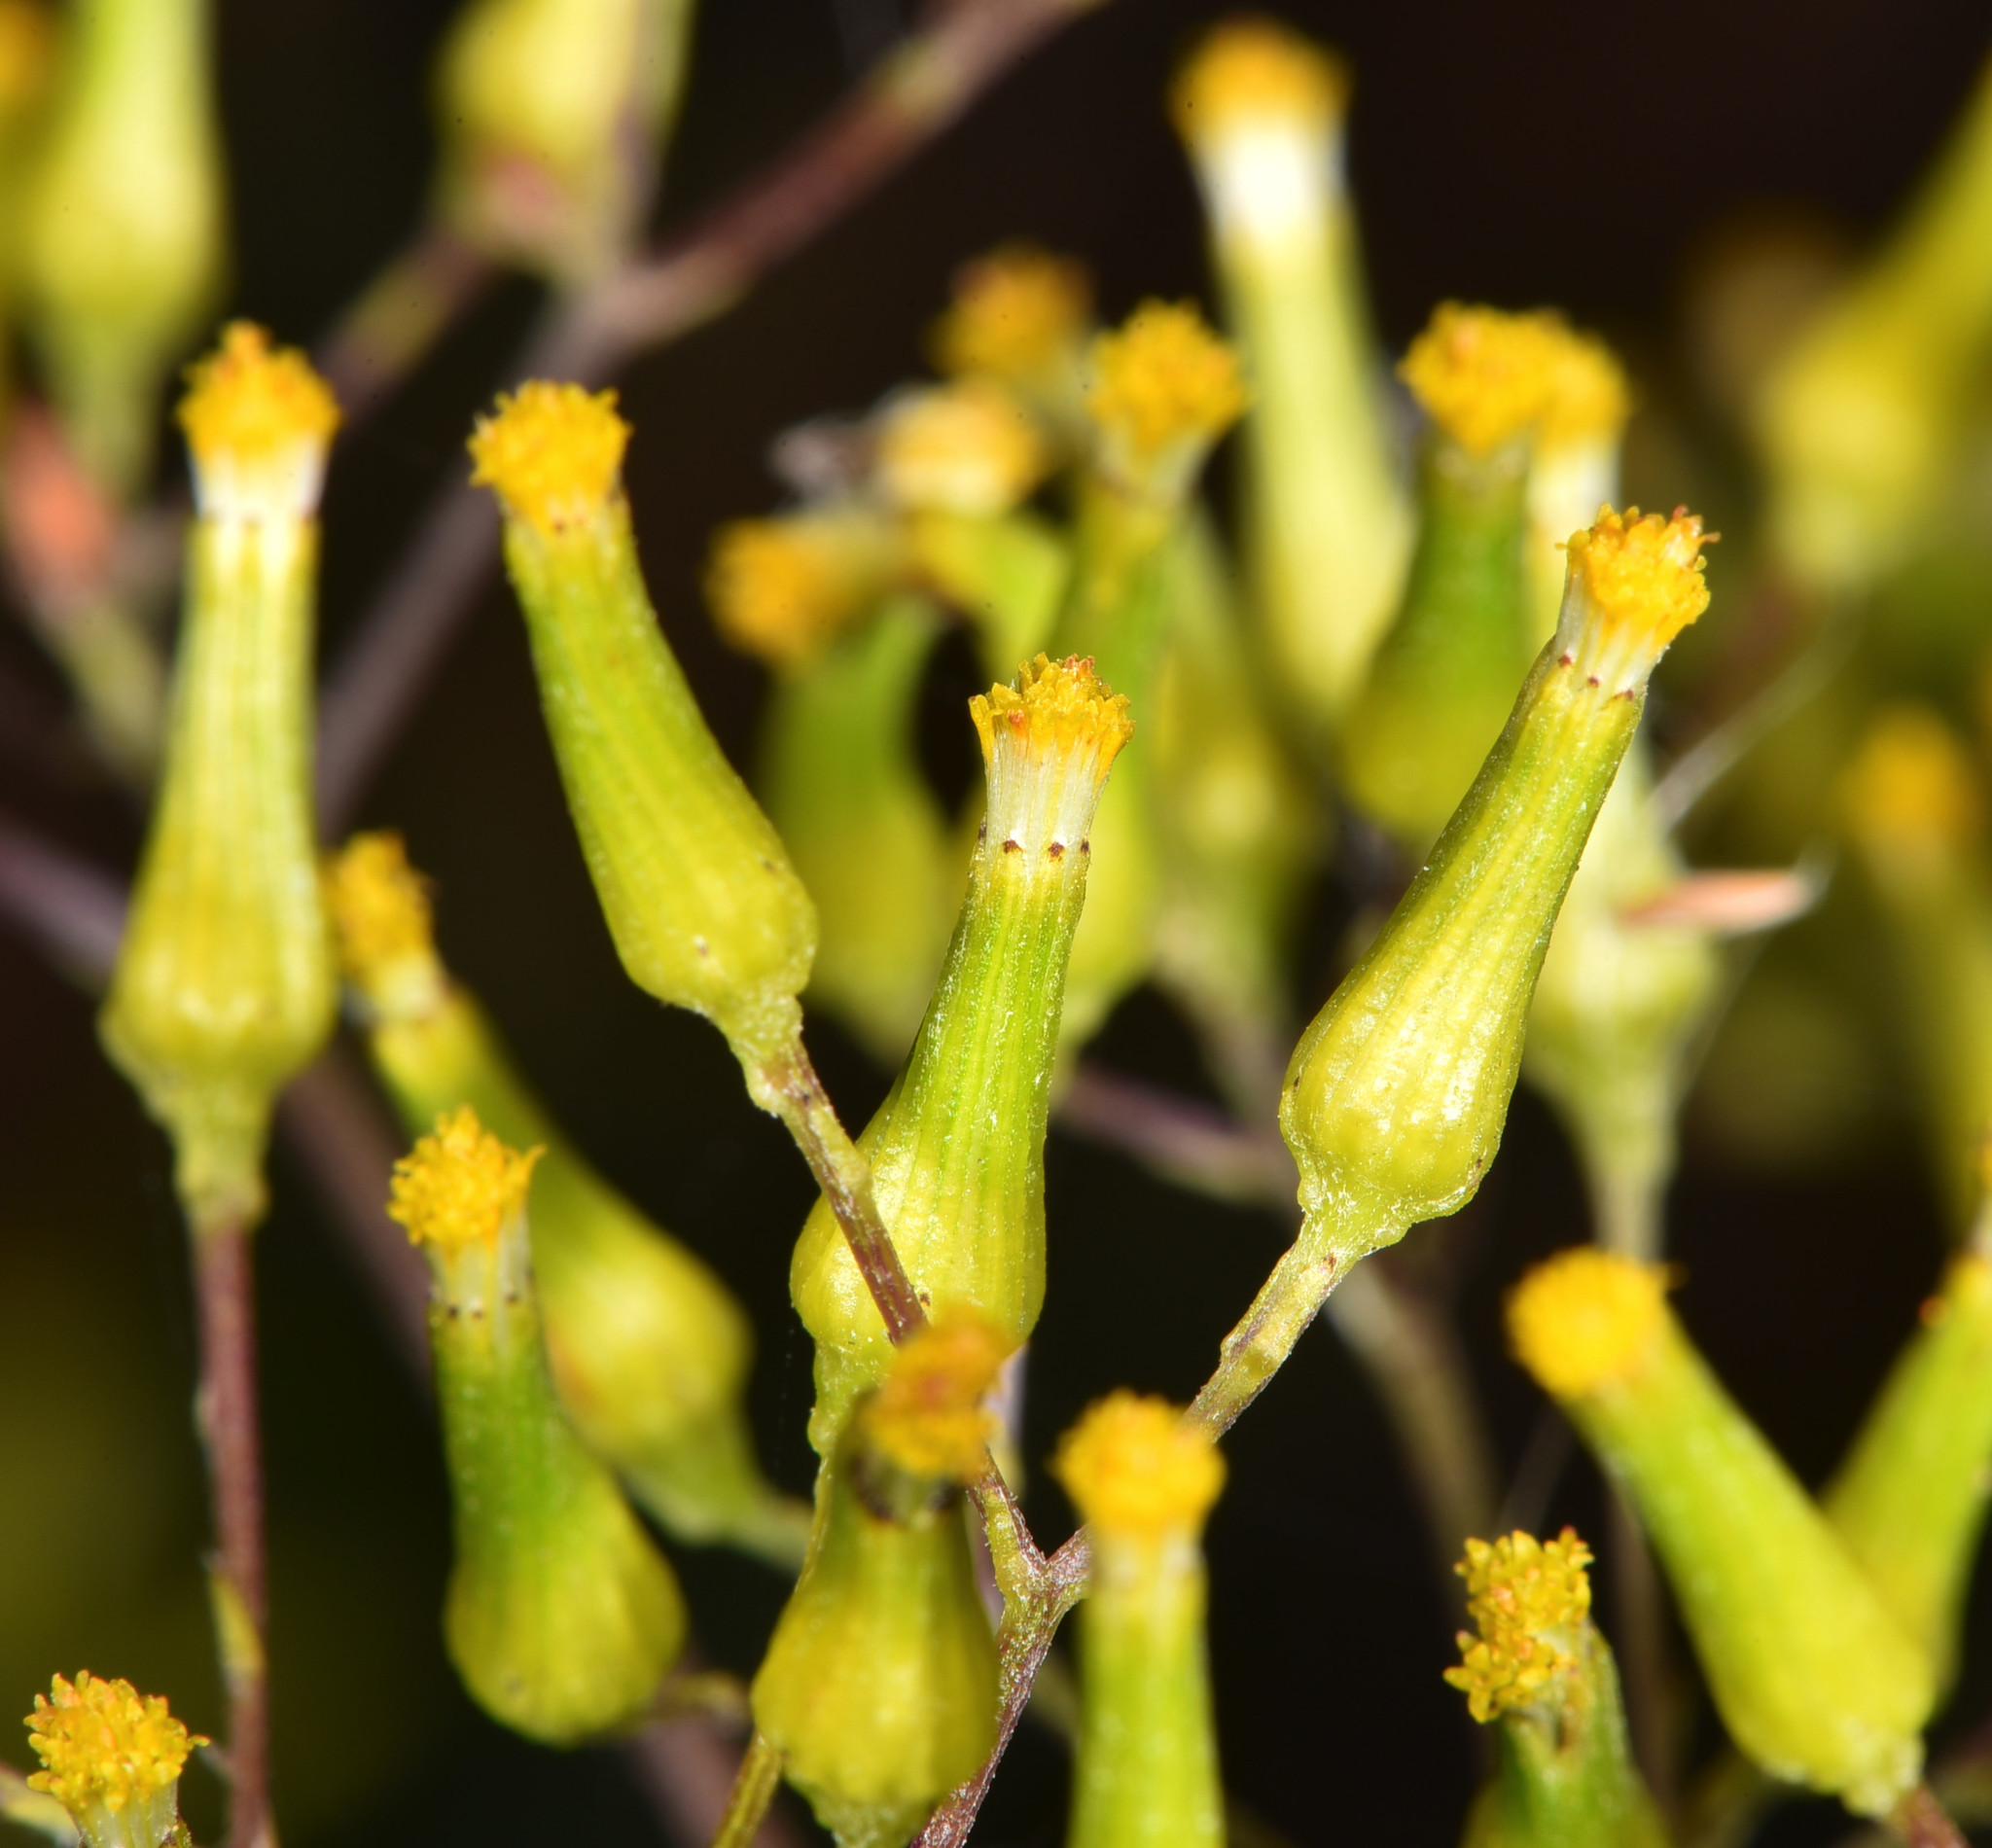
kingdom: Plantae
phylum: Tracheophyta
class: Magnoliopsida
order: Asterales
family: Asteraceae
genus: Senecio
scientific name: Senecio minimus
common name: Toothed fireweed
